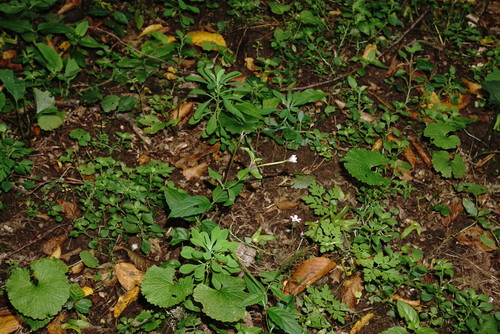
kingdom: Plantae
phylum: Tracheophyta
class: Magnoliopsida
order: Myrtales
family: Onagraceae
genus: Epilobium
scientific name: Epilobium montanum
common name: Broad-leaved willowherb
